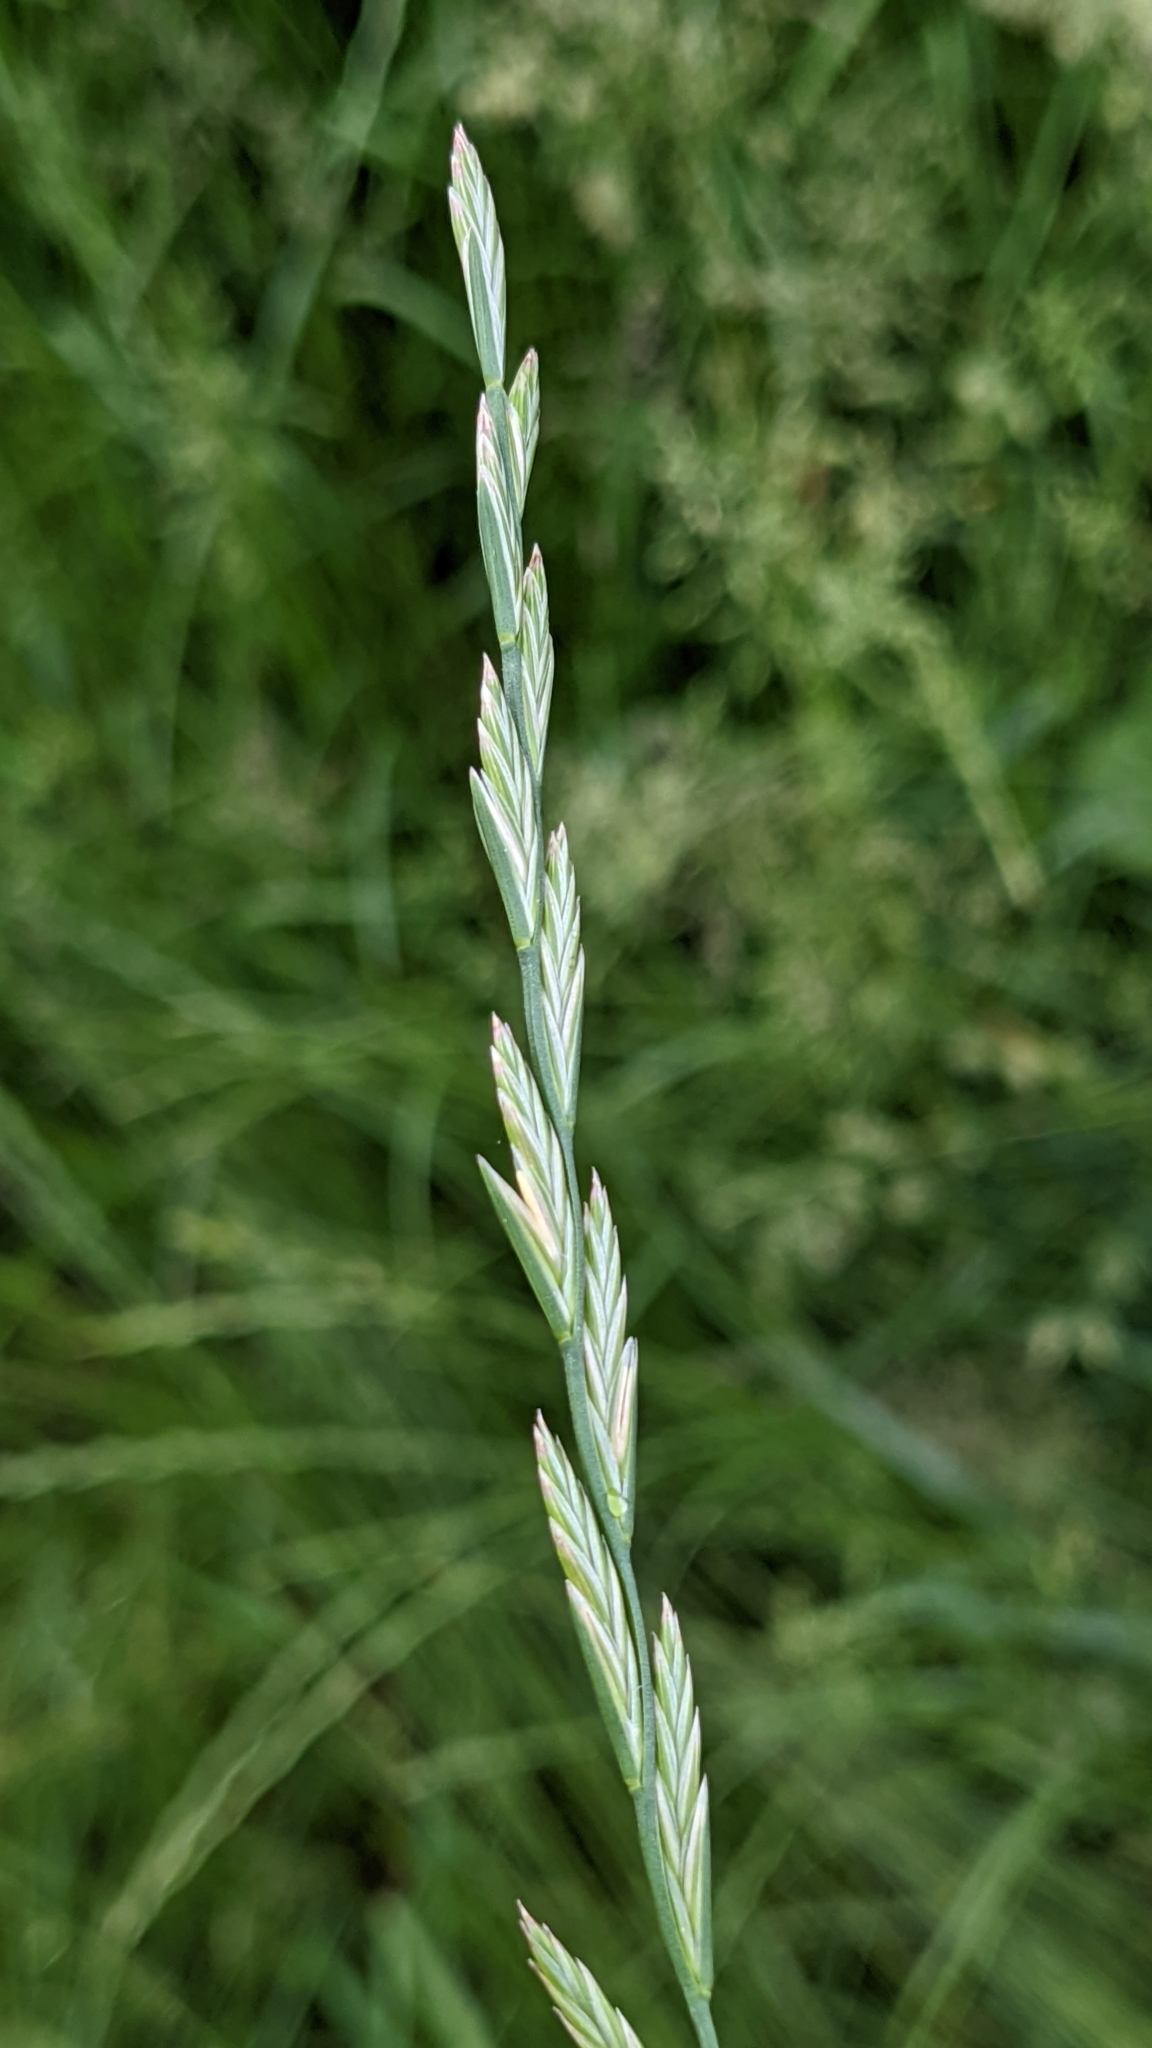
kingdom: Plantae
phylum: Tracheophyta
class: Liliopsida
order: Poales
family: Poaceae
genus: Lolium
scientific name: Lolium perenne
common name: Perennial ryegrass
